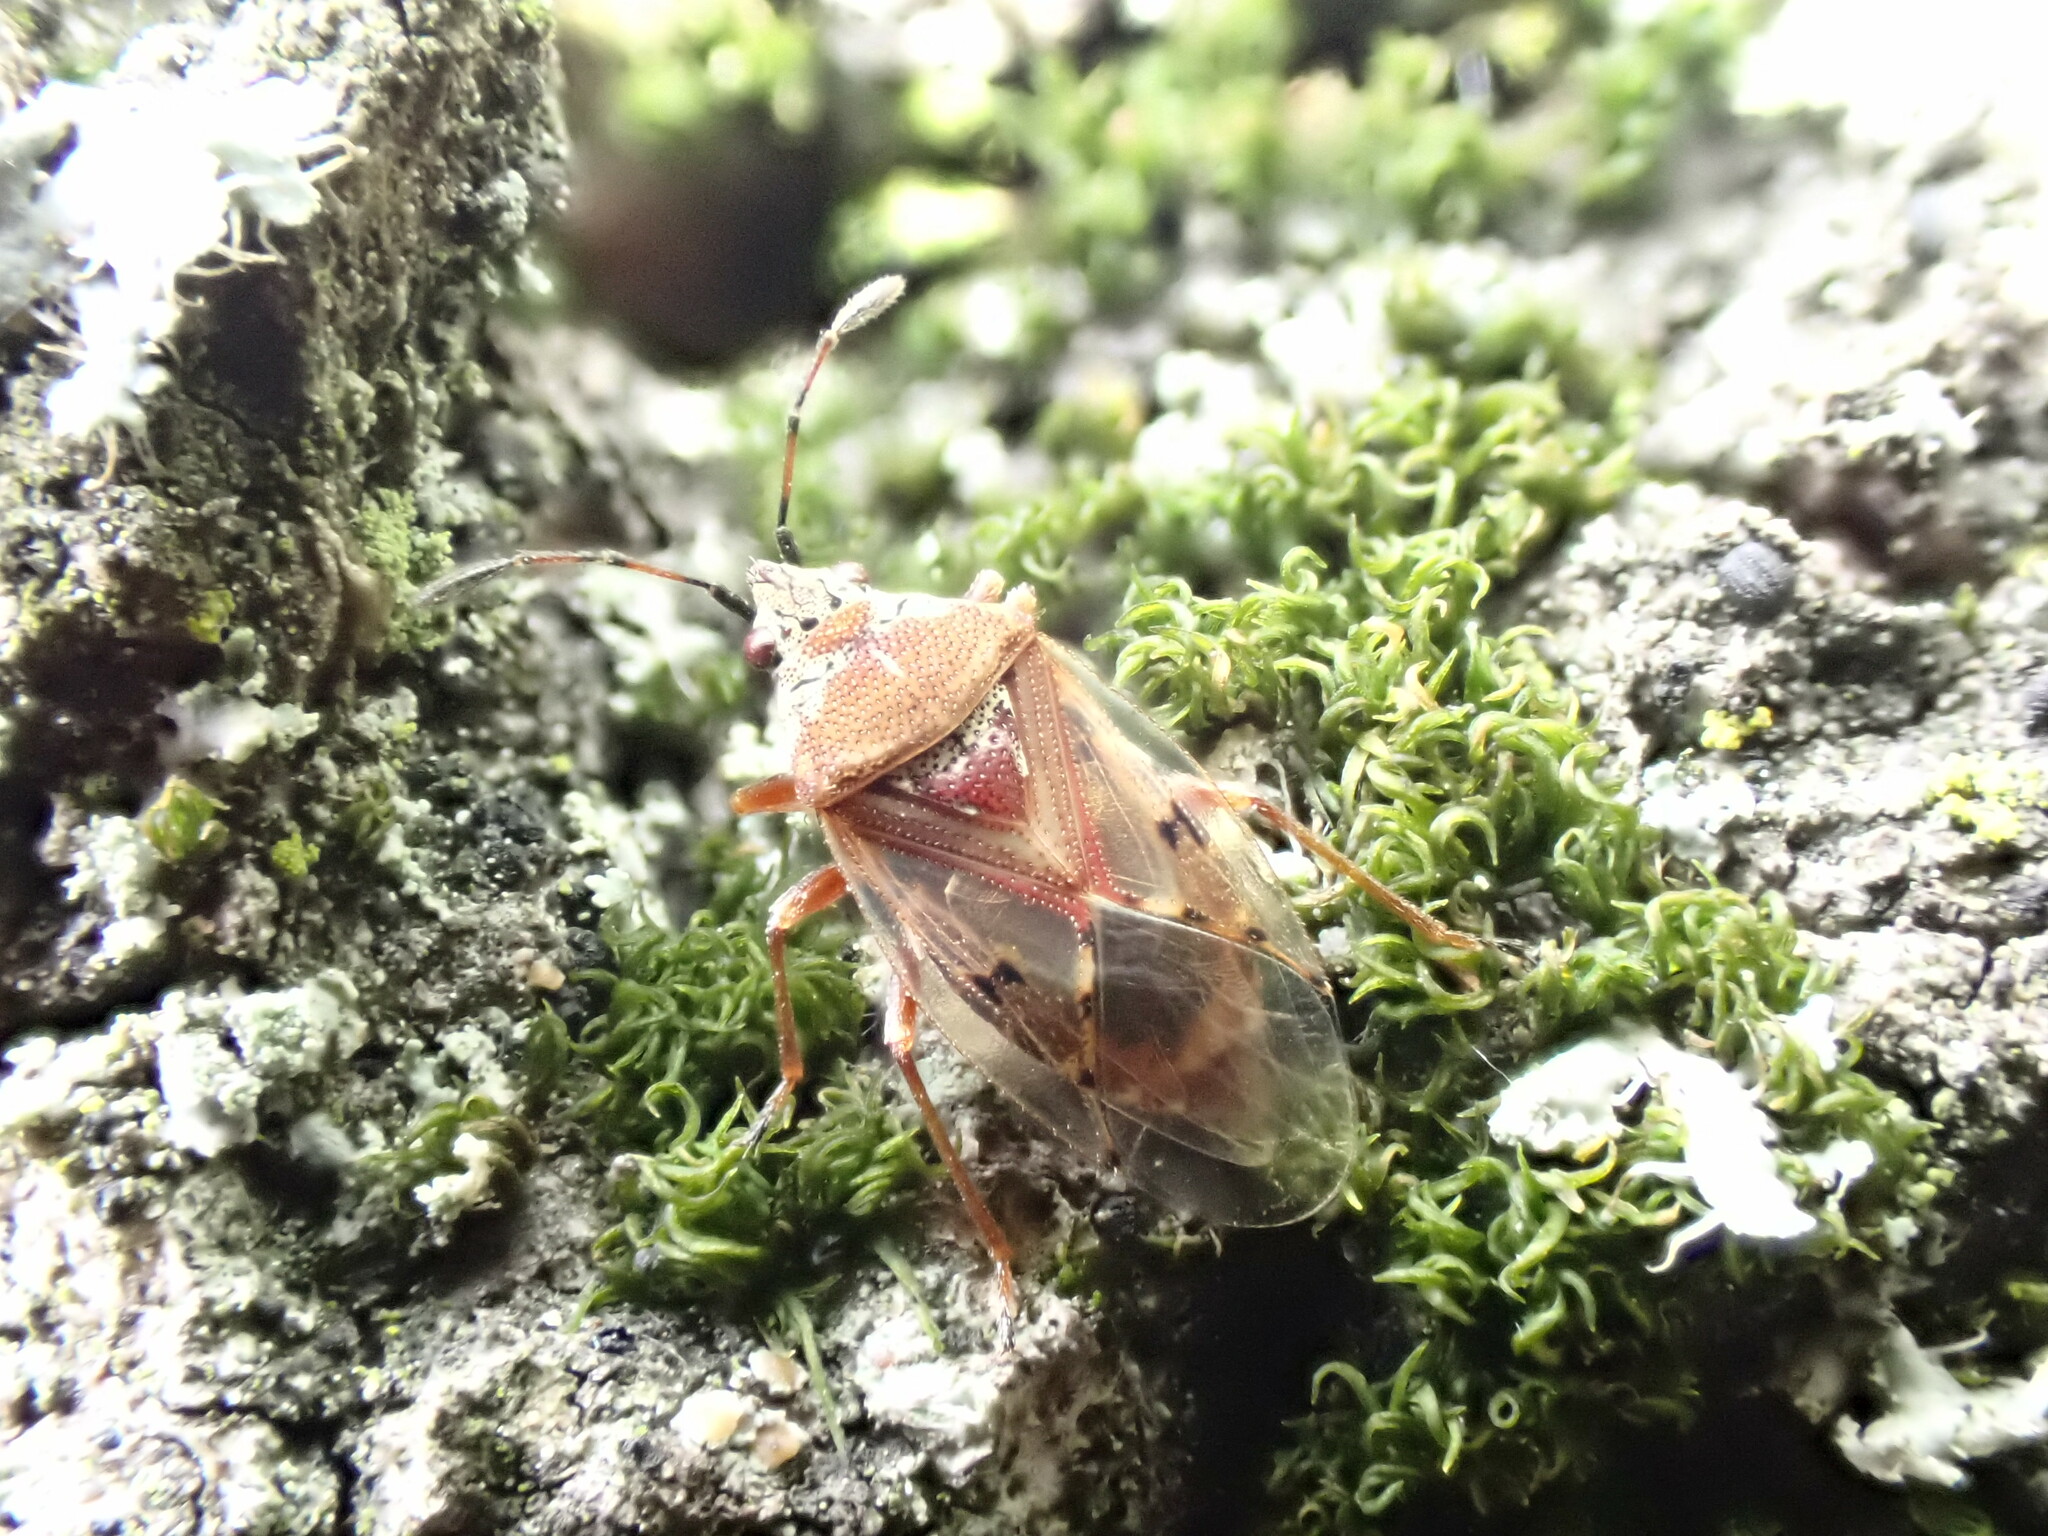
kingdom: Animalia
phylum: Arthropoda
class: Insecta
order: Hemiptera
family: Lygaeidae
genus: Kleidocerys
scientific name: Kleidocerys resedae
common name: Birch catkin bug
